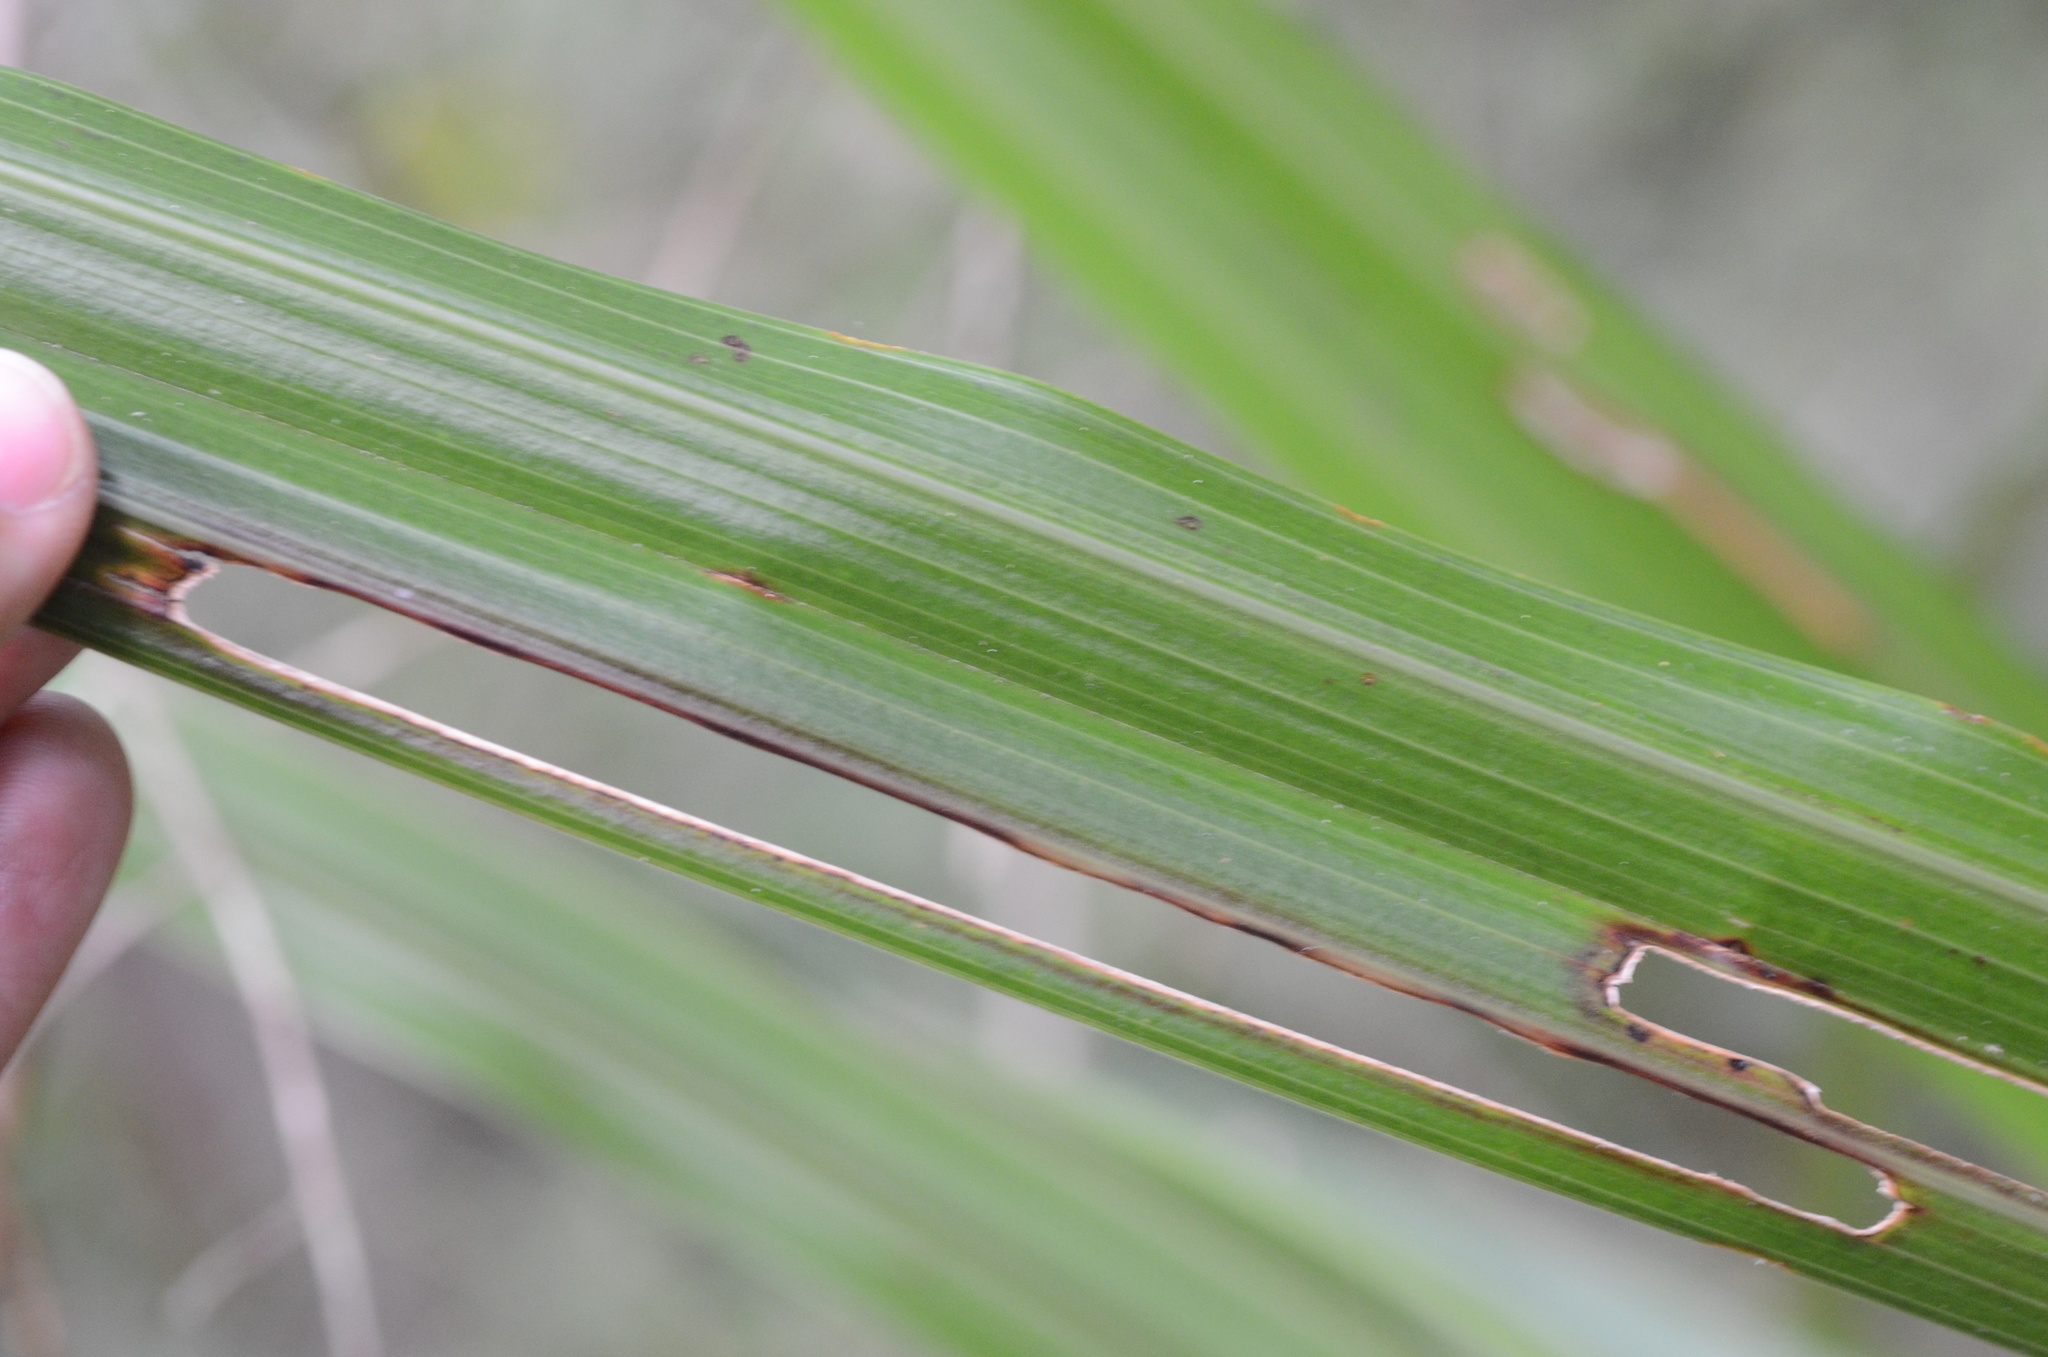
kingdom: Plantae
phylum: Tracheophyta
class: Liliopsida
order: Asparagales
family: Asteliaceae
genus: Astelia
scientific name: Astelia fragrans
